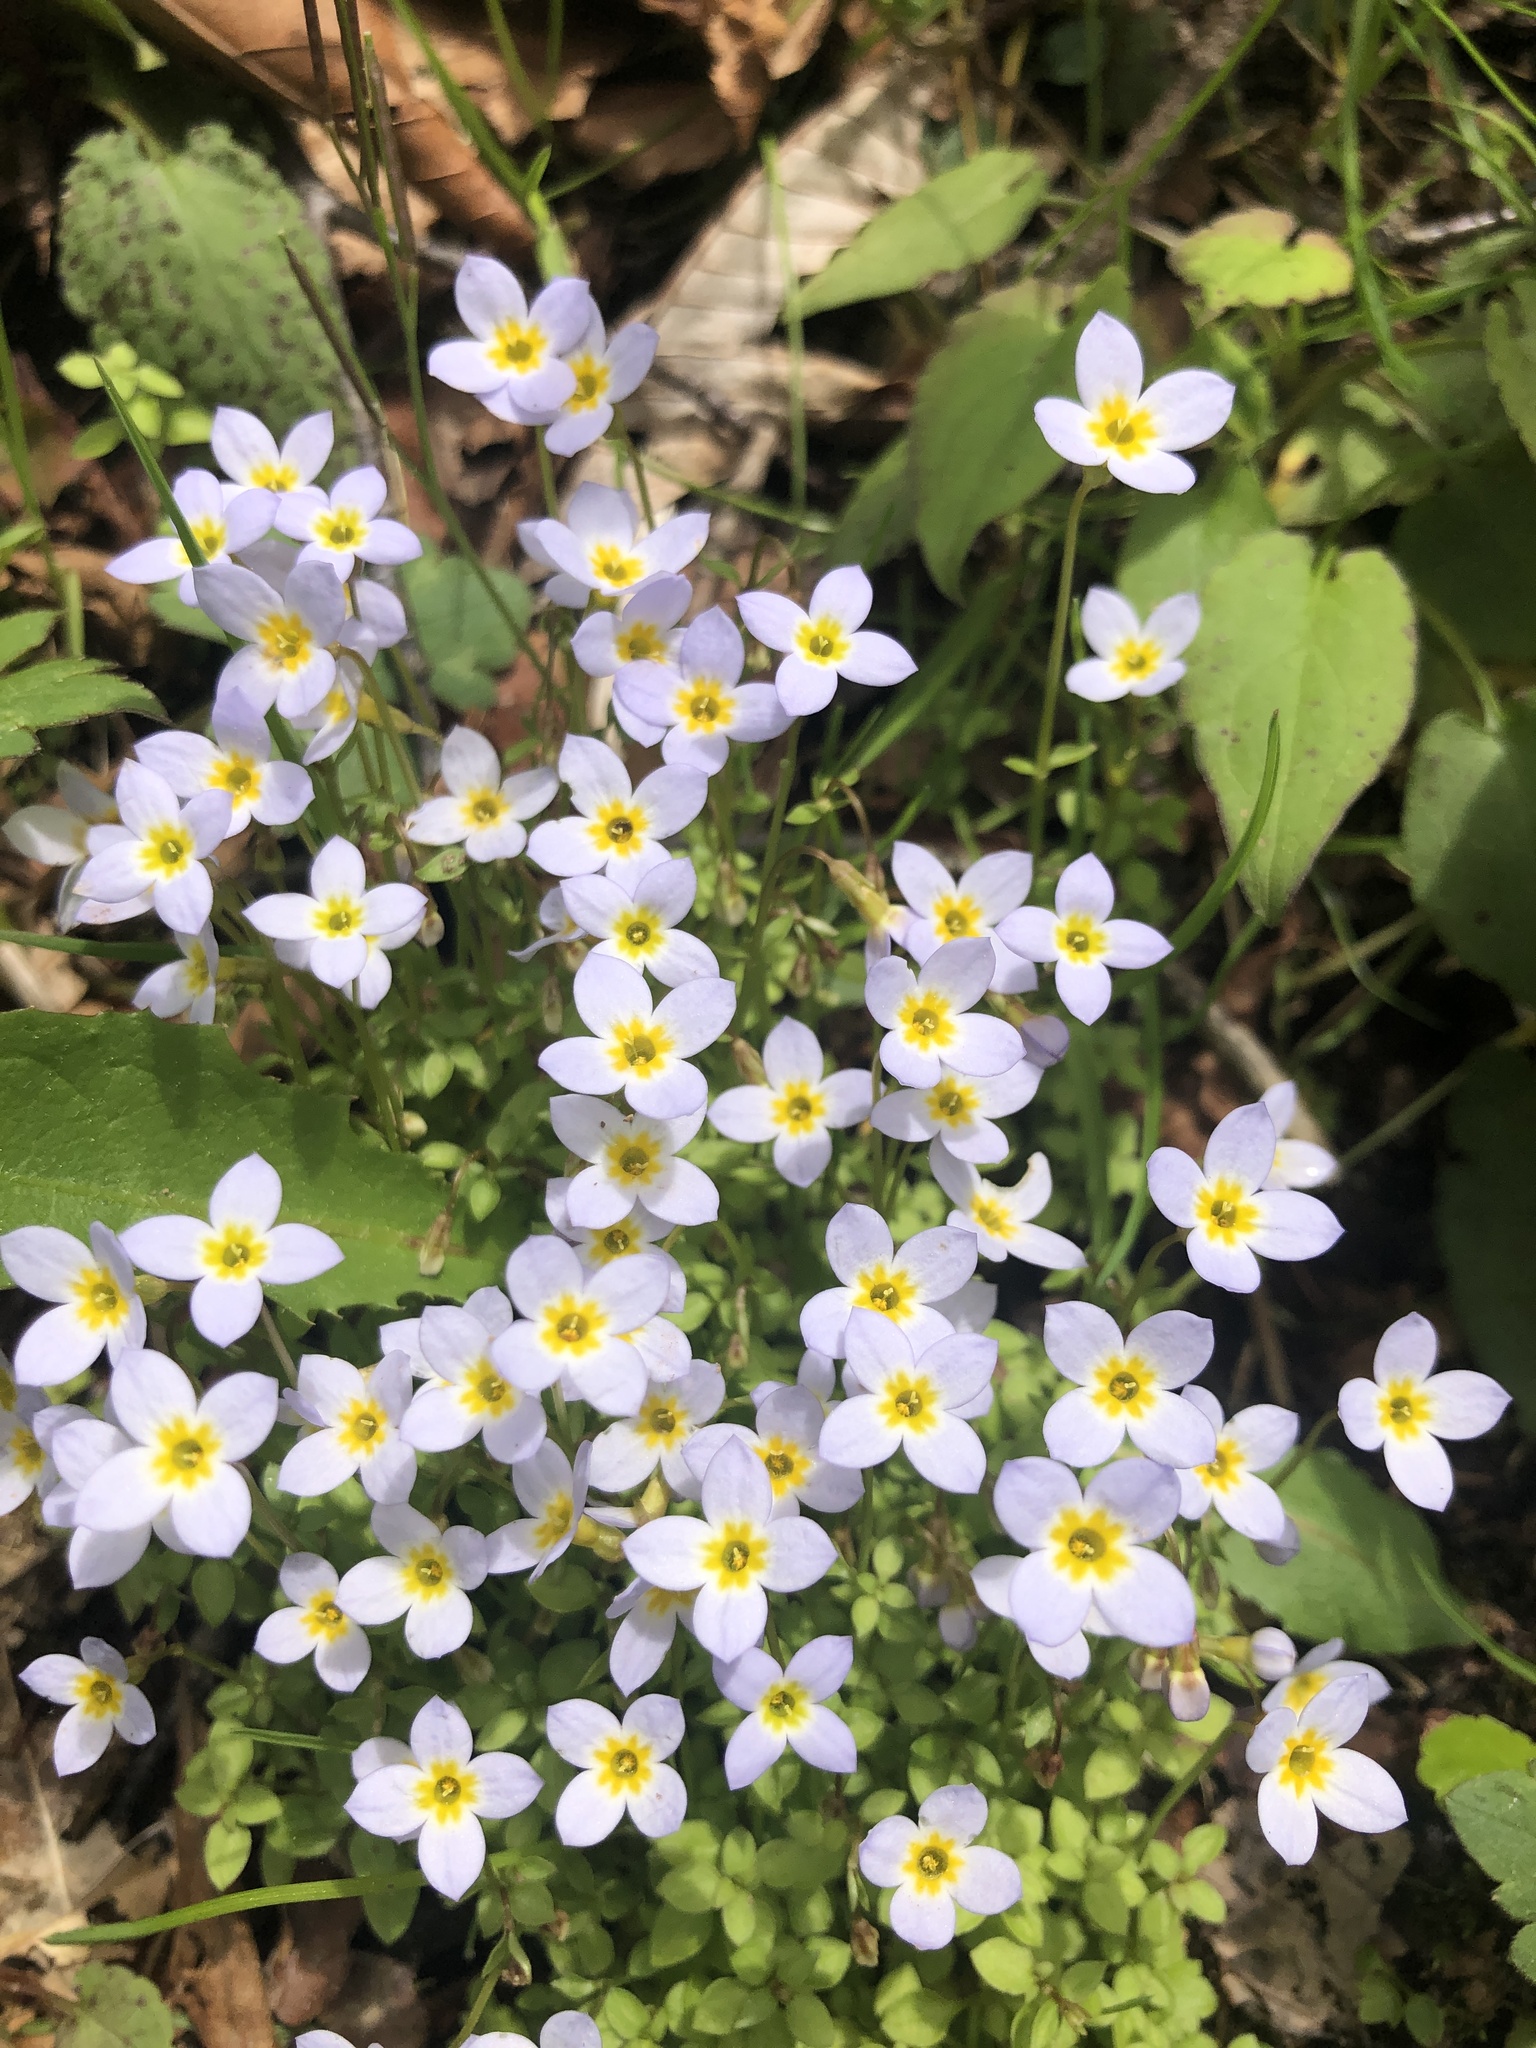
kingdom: Plantae
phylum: Tracheophyta
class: Magnoliopsida
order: Gentianales
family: Rubiaceae
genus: Houstonia
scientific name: Houstonia serpyllifolia
